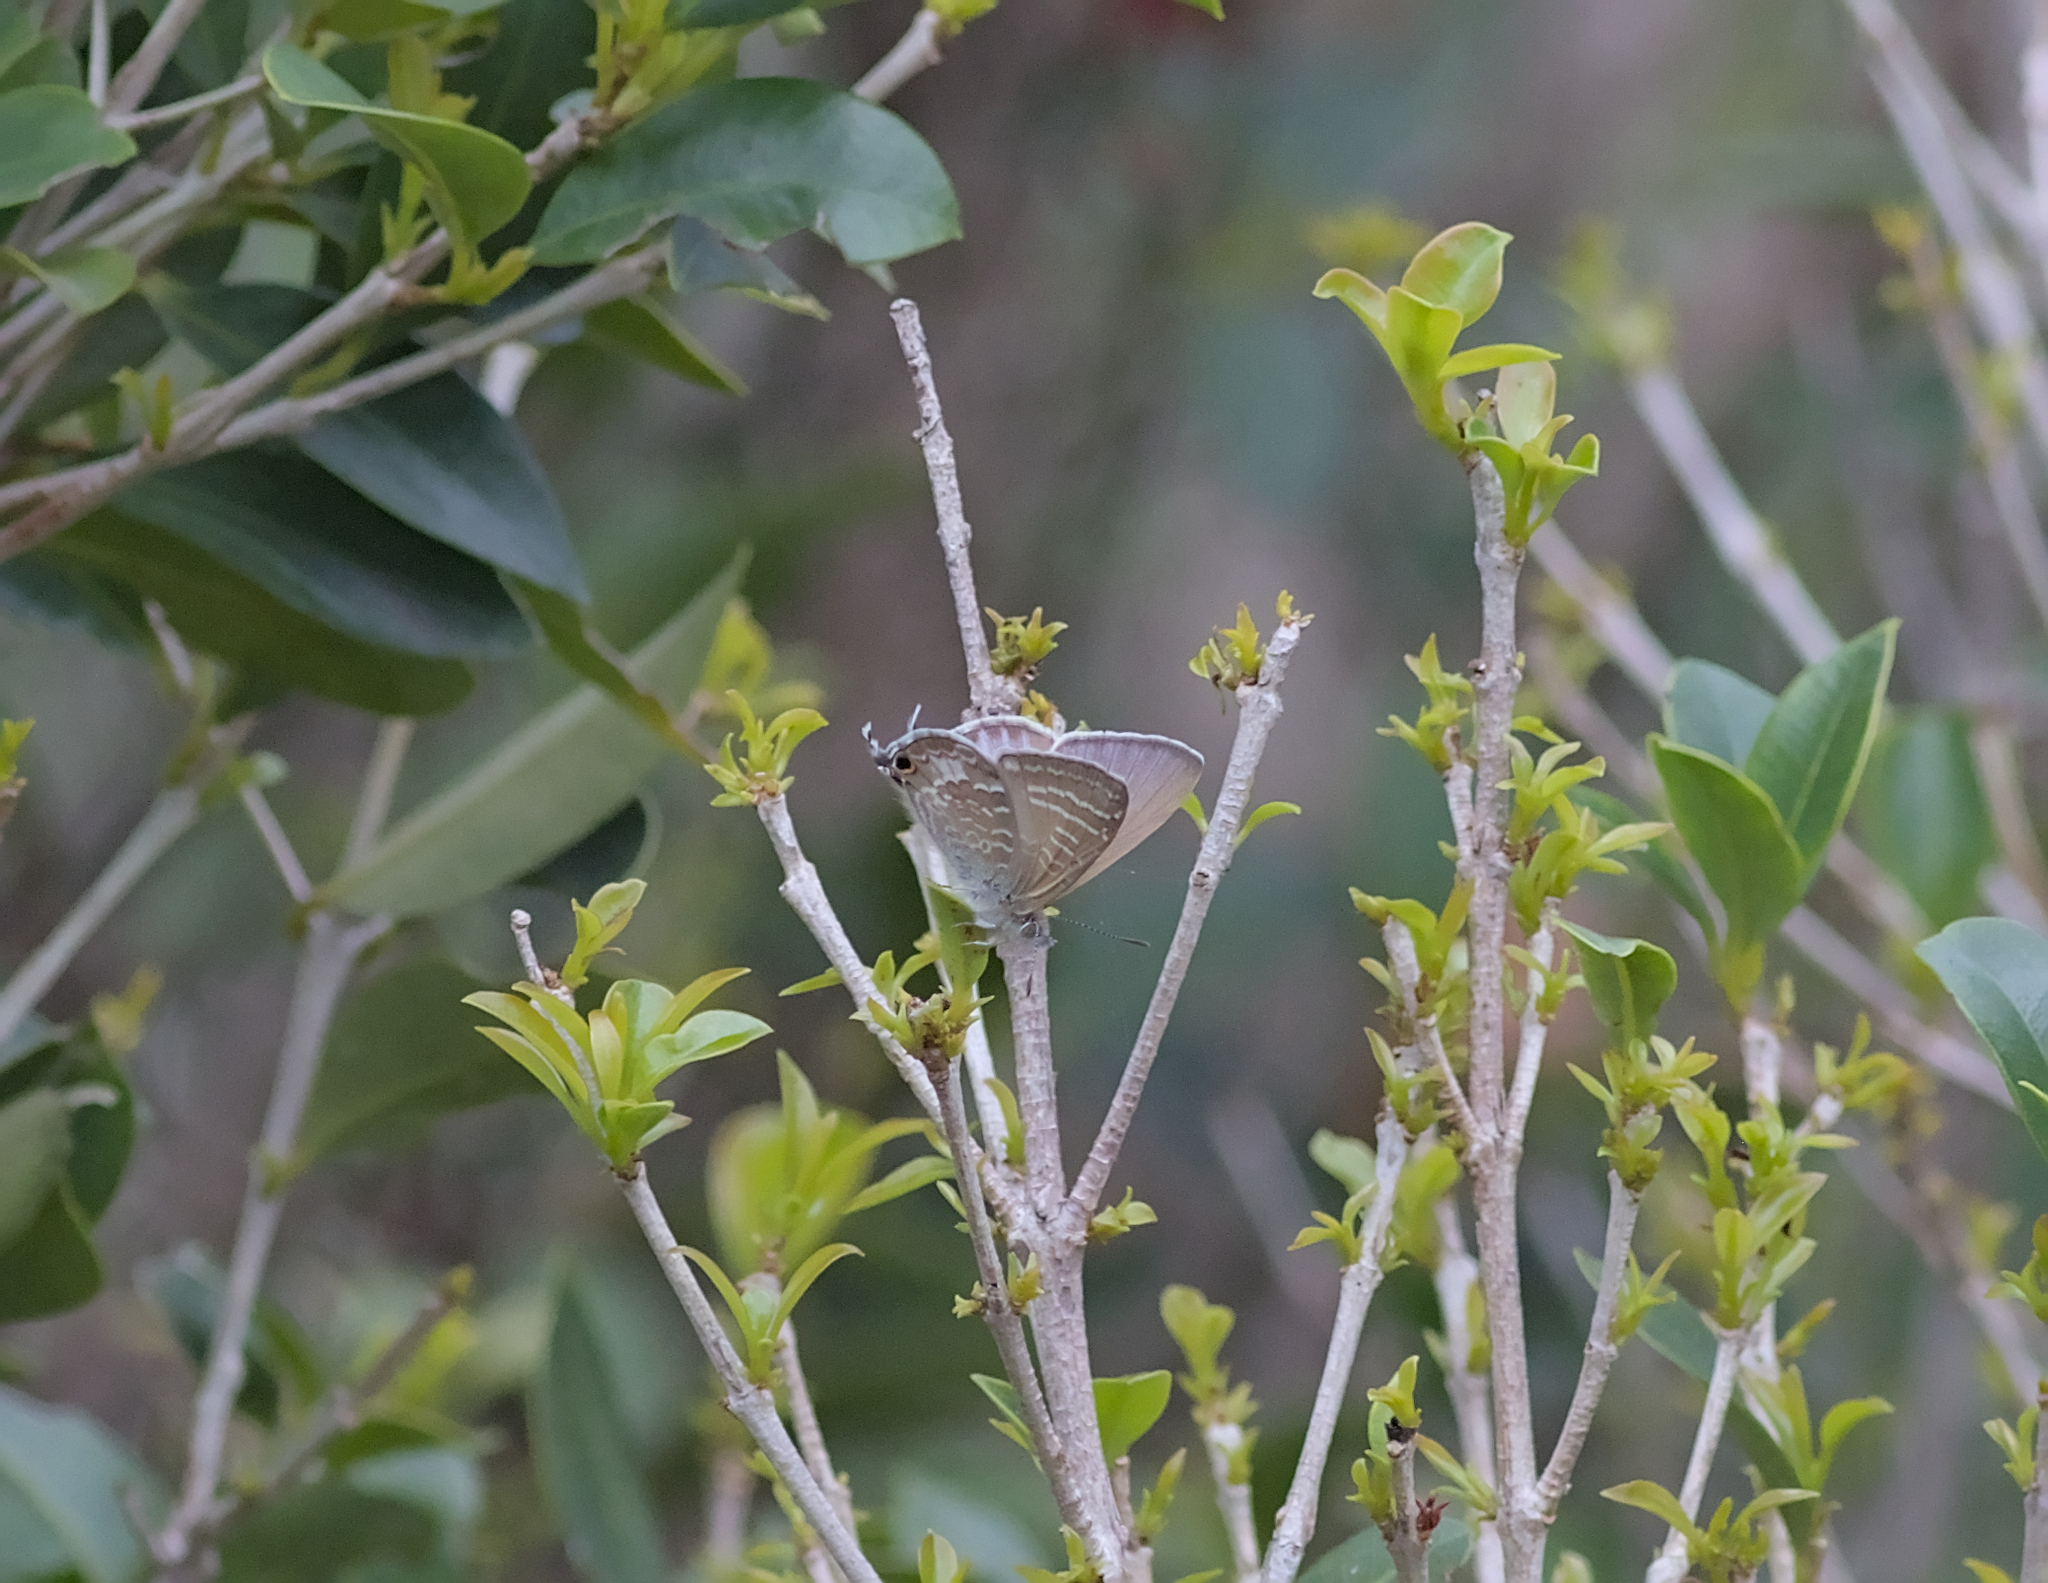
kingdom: Animalia
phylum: Arthropoda
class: Insecta
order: Lepidoptera
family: Lycaenidae
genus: Theclinesthes
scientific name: Theclinesthes onycha
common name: Cycad blue
